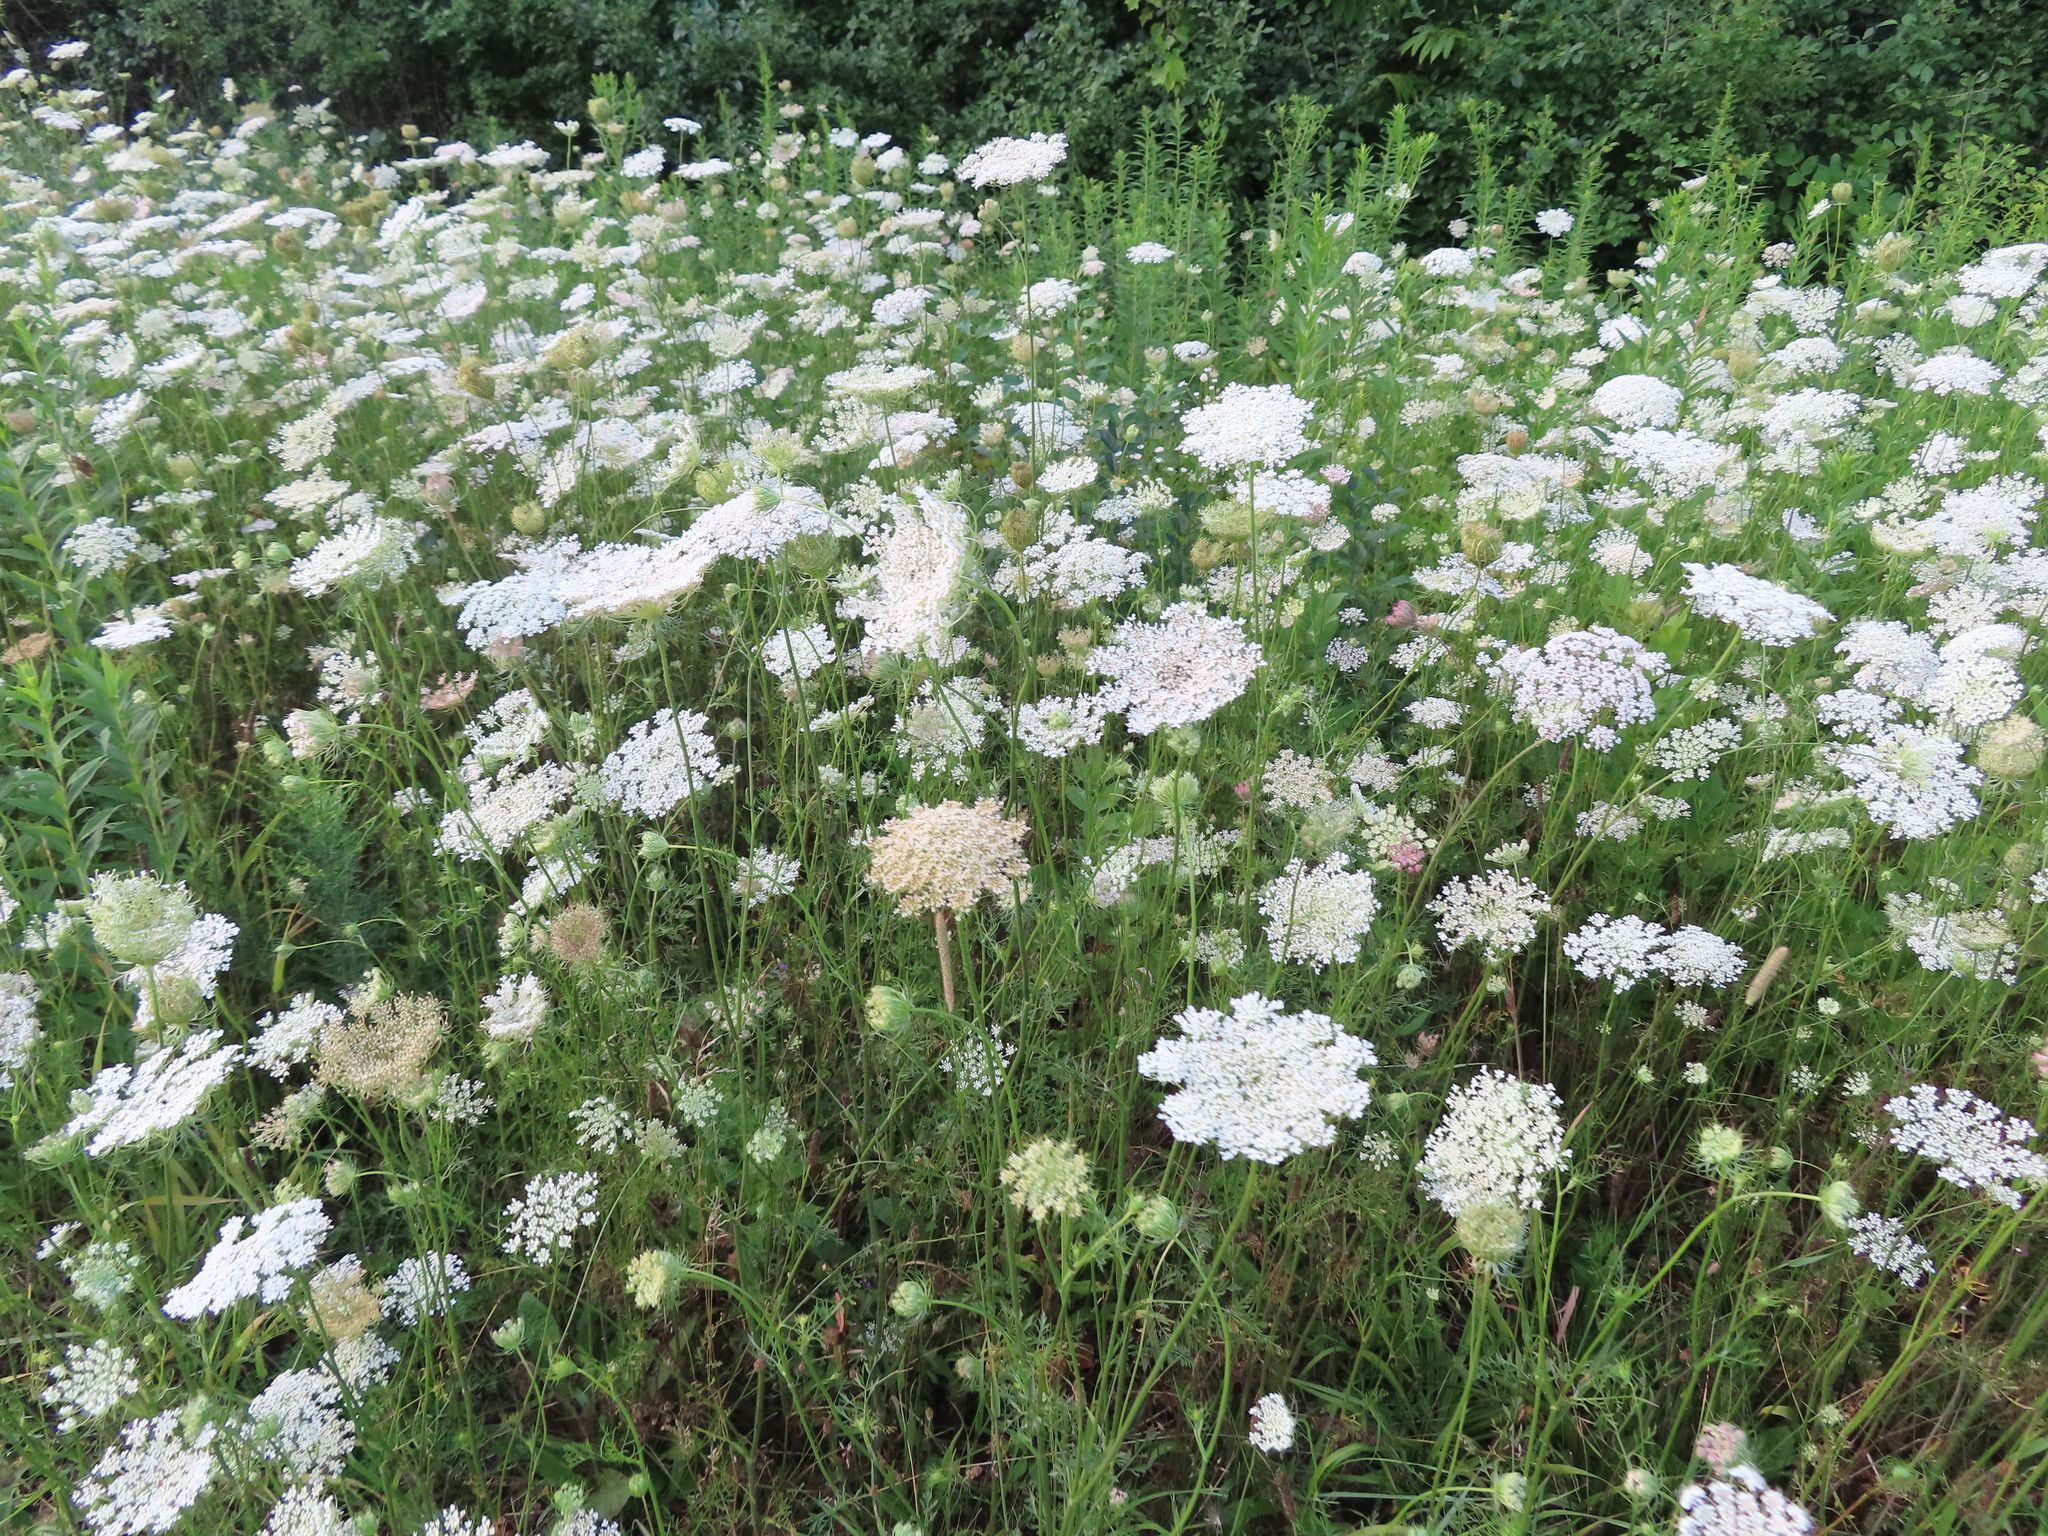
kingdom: Plantae
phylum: Tracheophyta
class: Magnoliopsida
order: Apiales
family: Apiaceae
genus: Daucus
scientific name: Daucus carota
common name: Wild carrot
